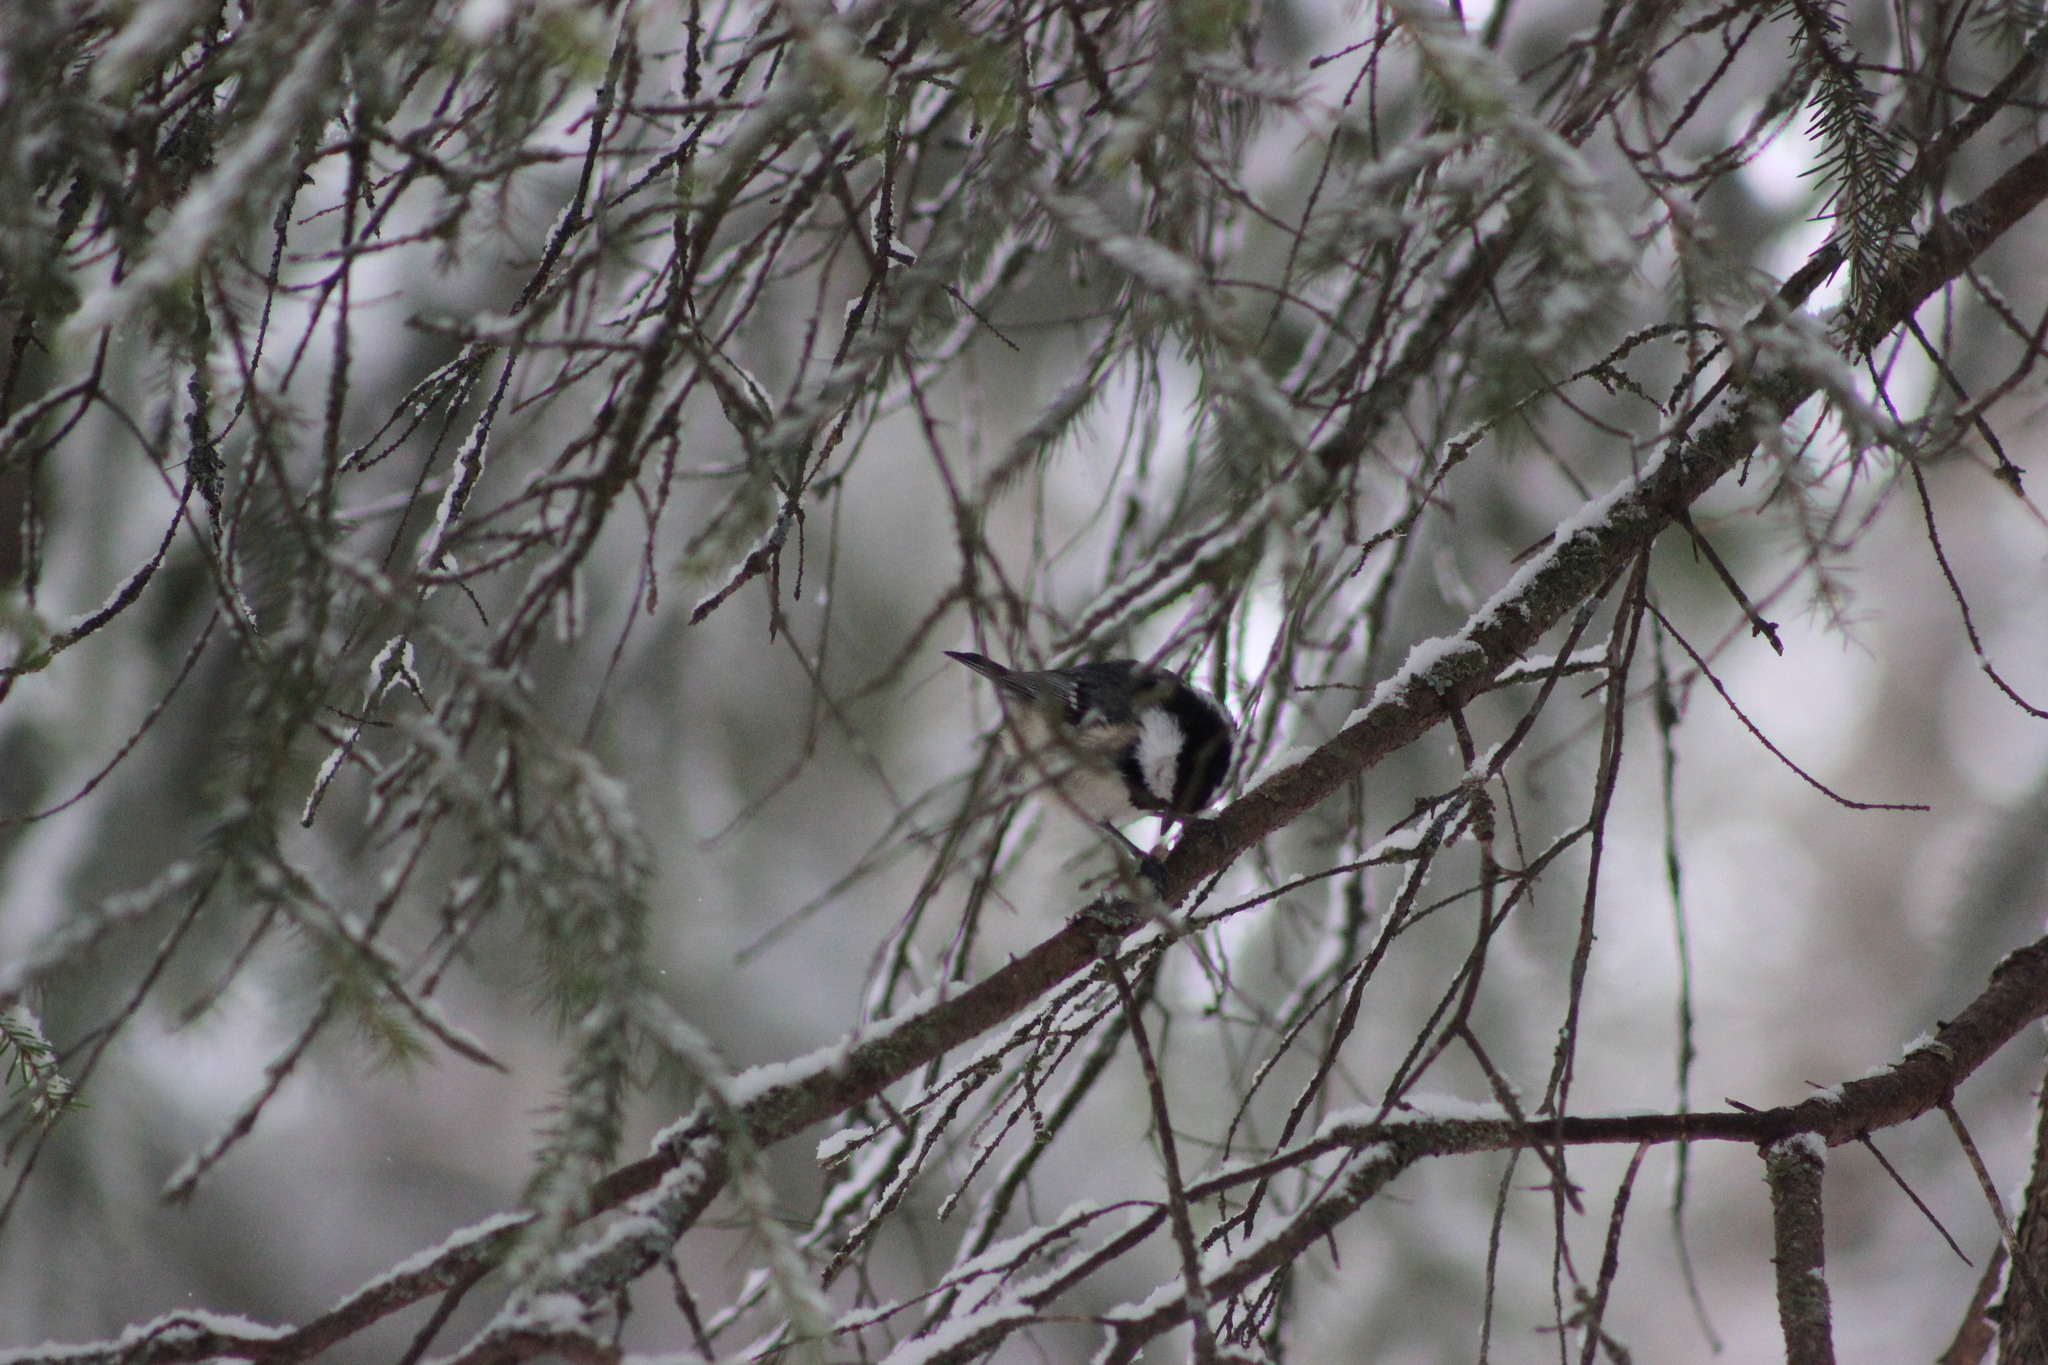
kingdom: Animalia
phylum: Chordata
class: Aves
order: Passeriformes
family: Paridae
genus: Periparus
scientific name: Periparus ater
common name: Coal tit
